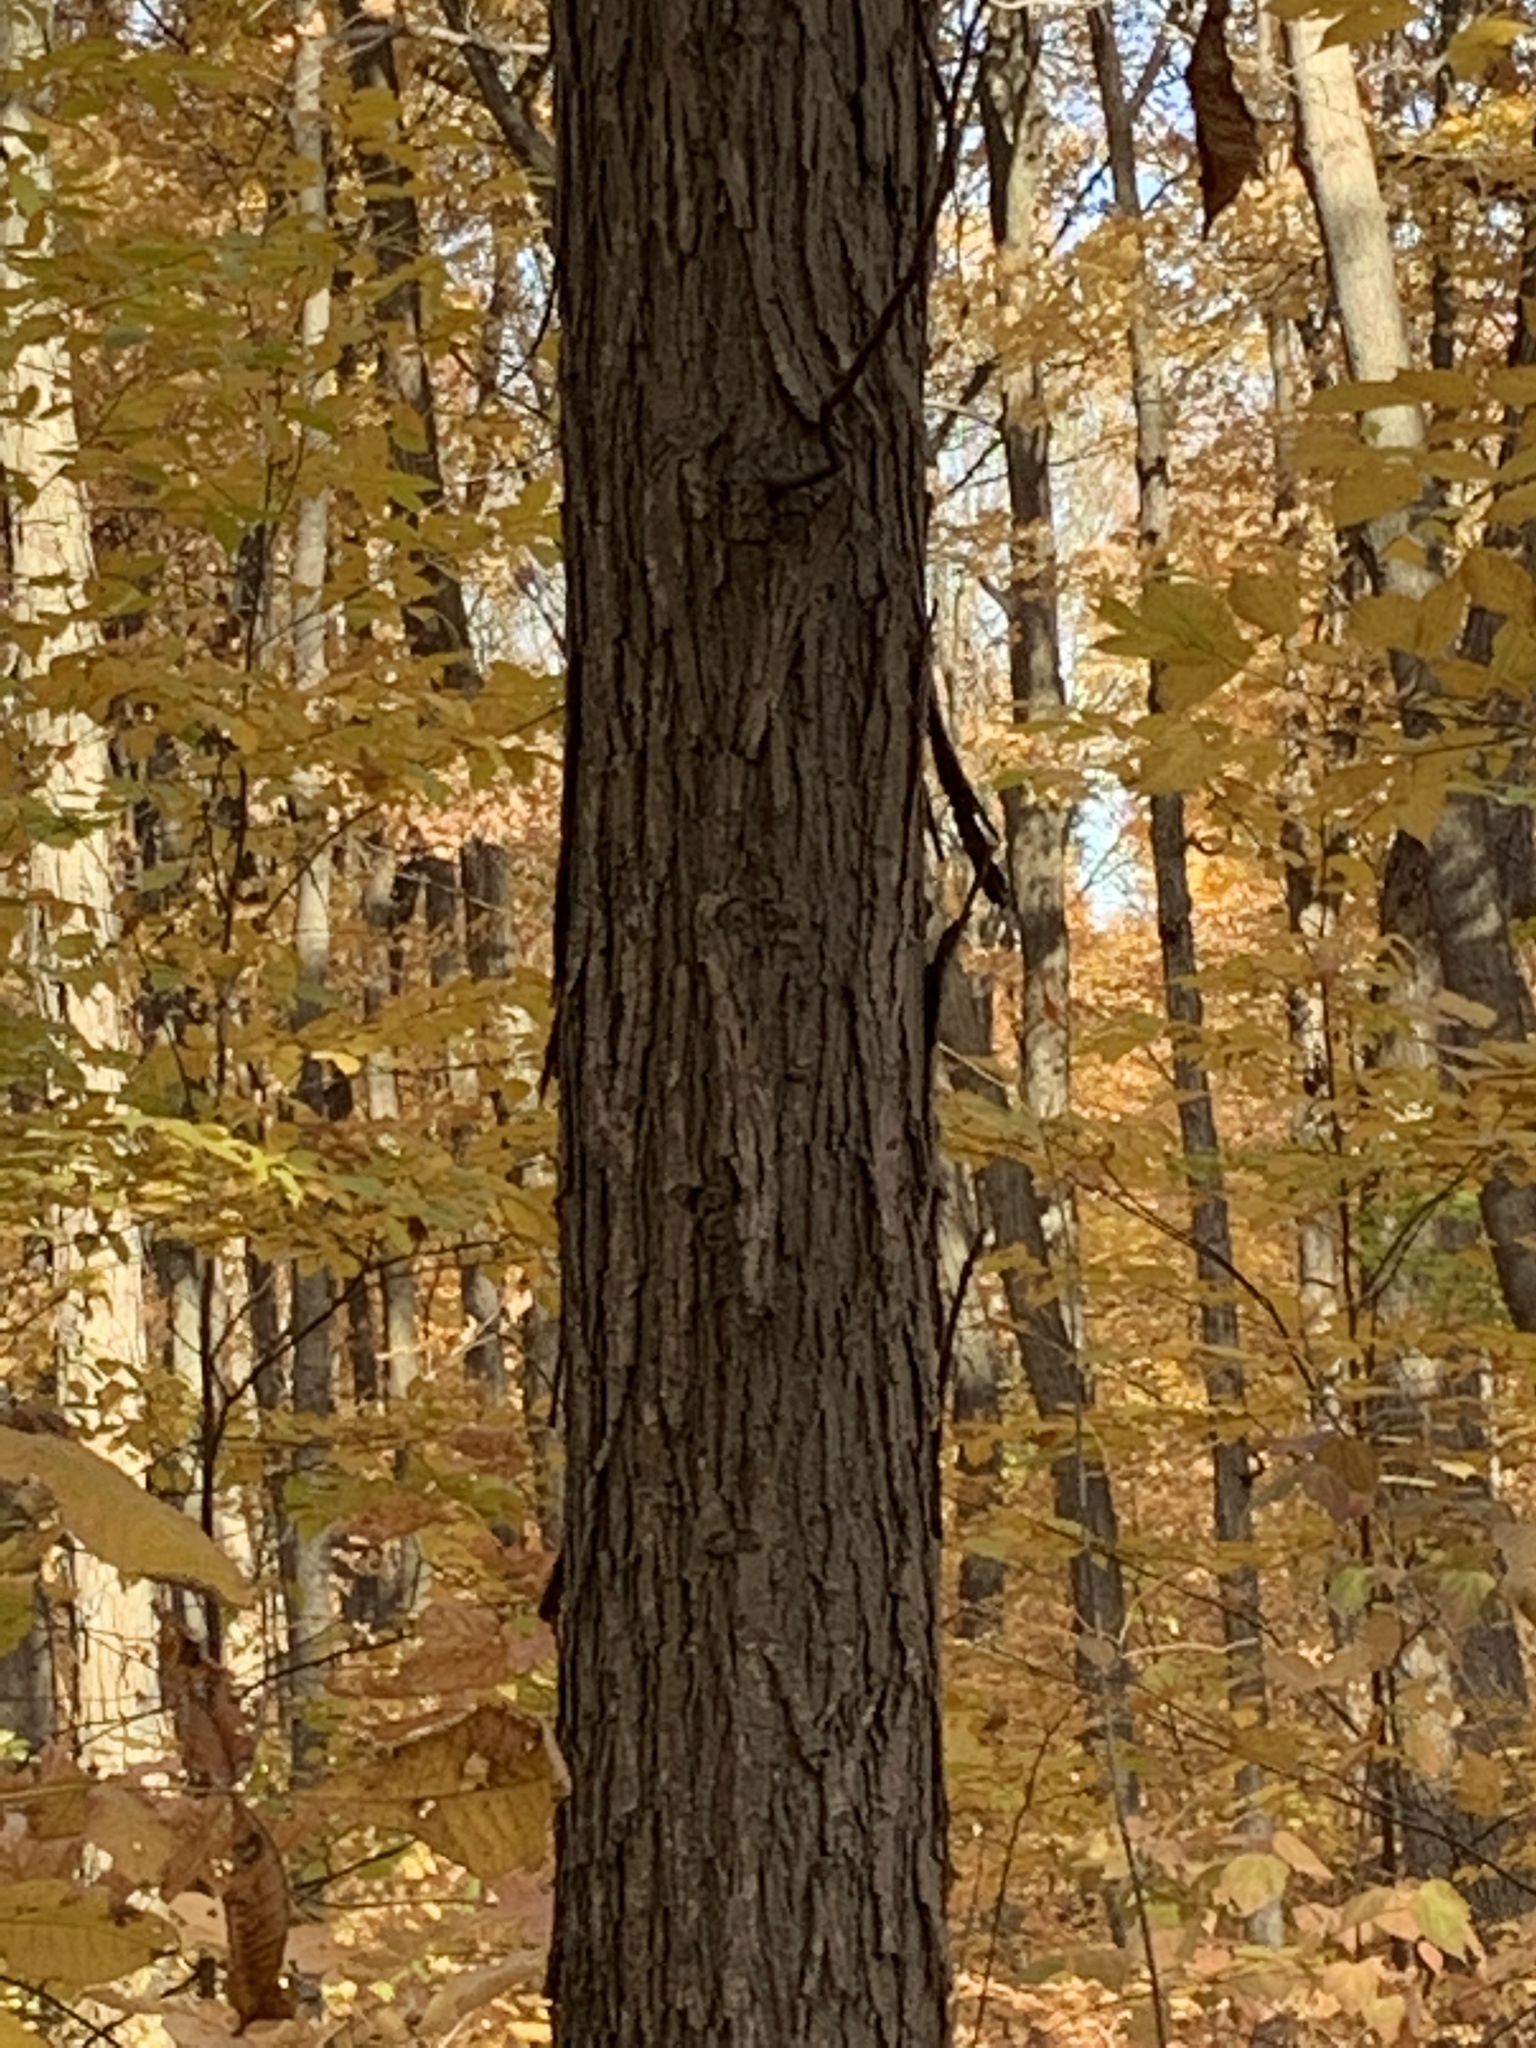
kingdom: Plantae
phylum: Tracheophyta
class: Magnoliopsida
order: Fagales
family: Juglandaceae
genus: Carya
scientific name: Carya ovata
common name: Shagbark hickory
